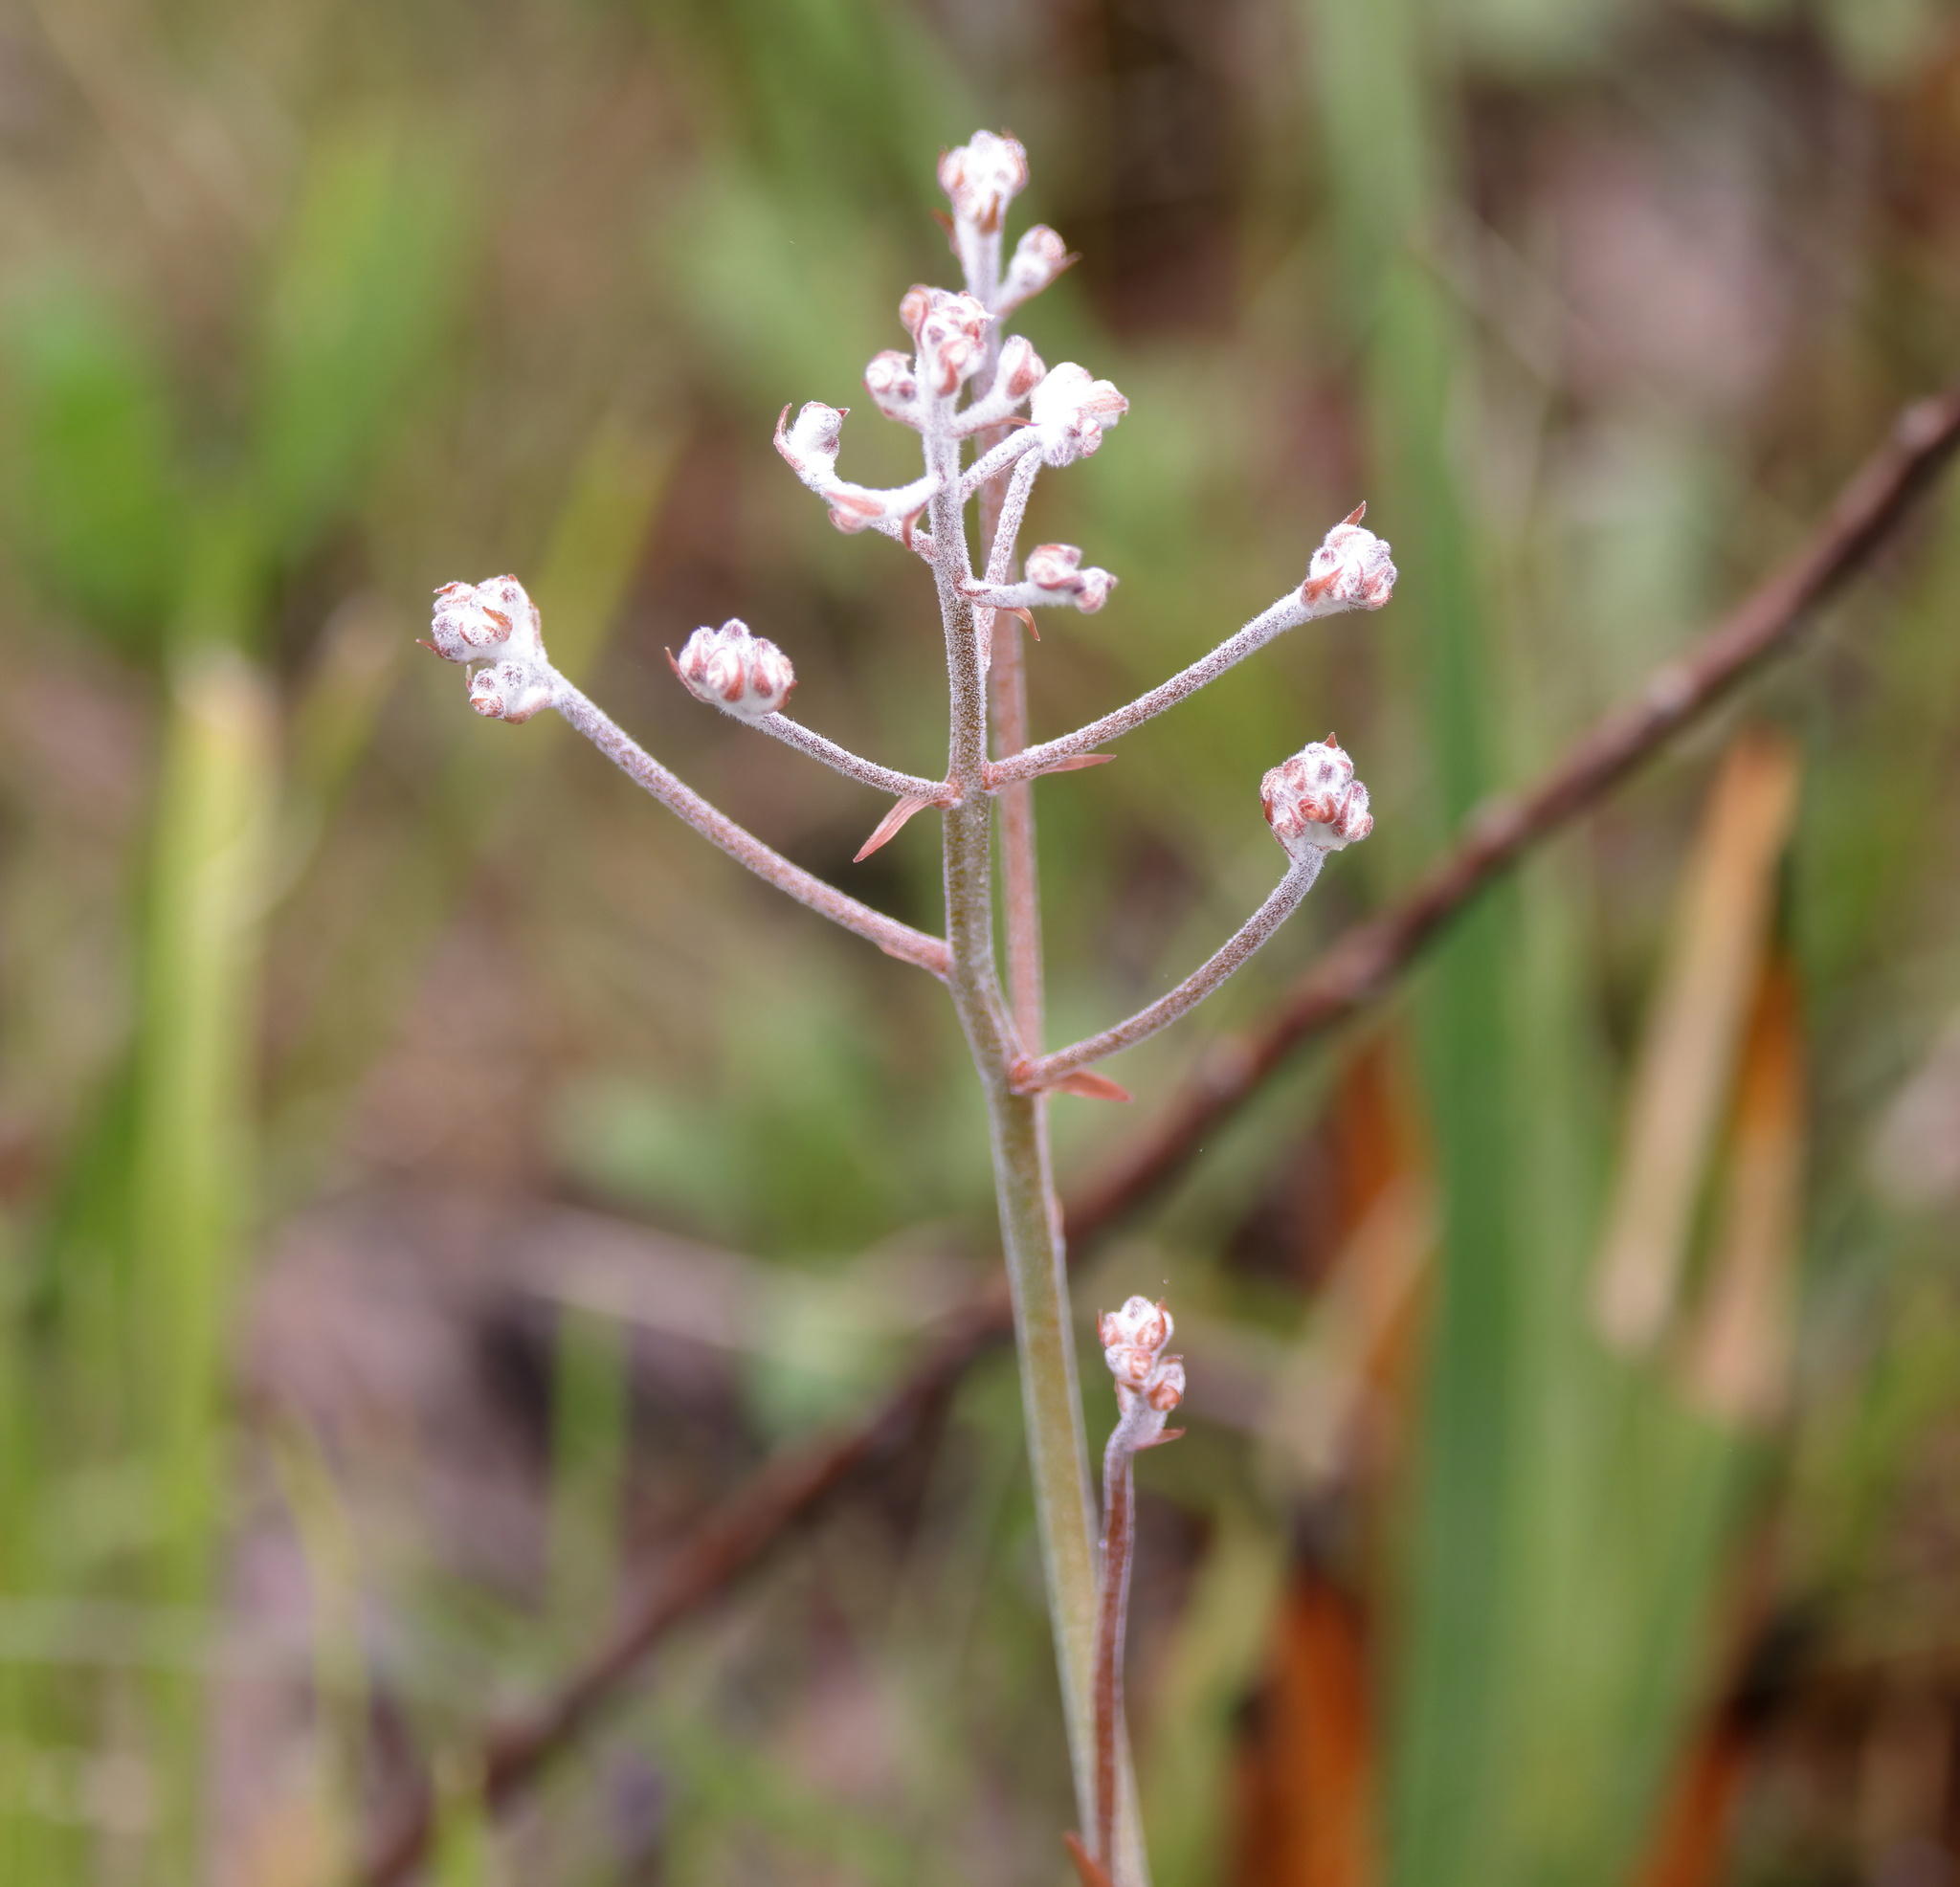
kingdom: Plantae
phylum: Tracheophyta
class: Liliopsida
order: Dioscoreales
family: Nartheciaceae
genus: Lophiola
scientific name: Lophiola aurea
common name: Golden-crest
